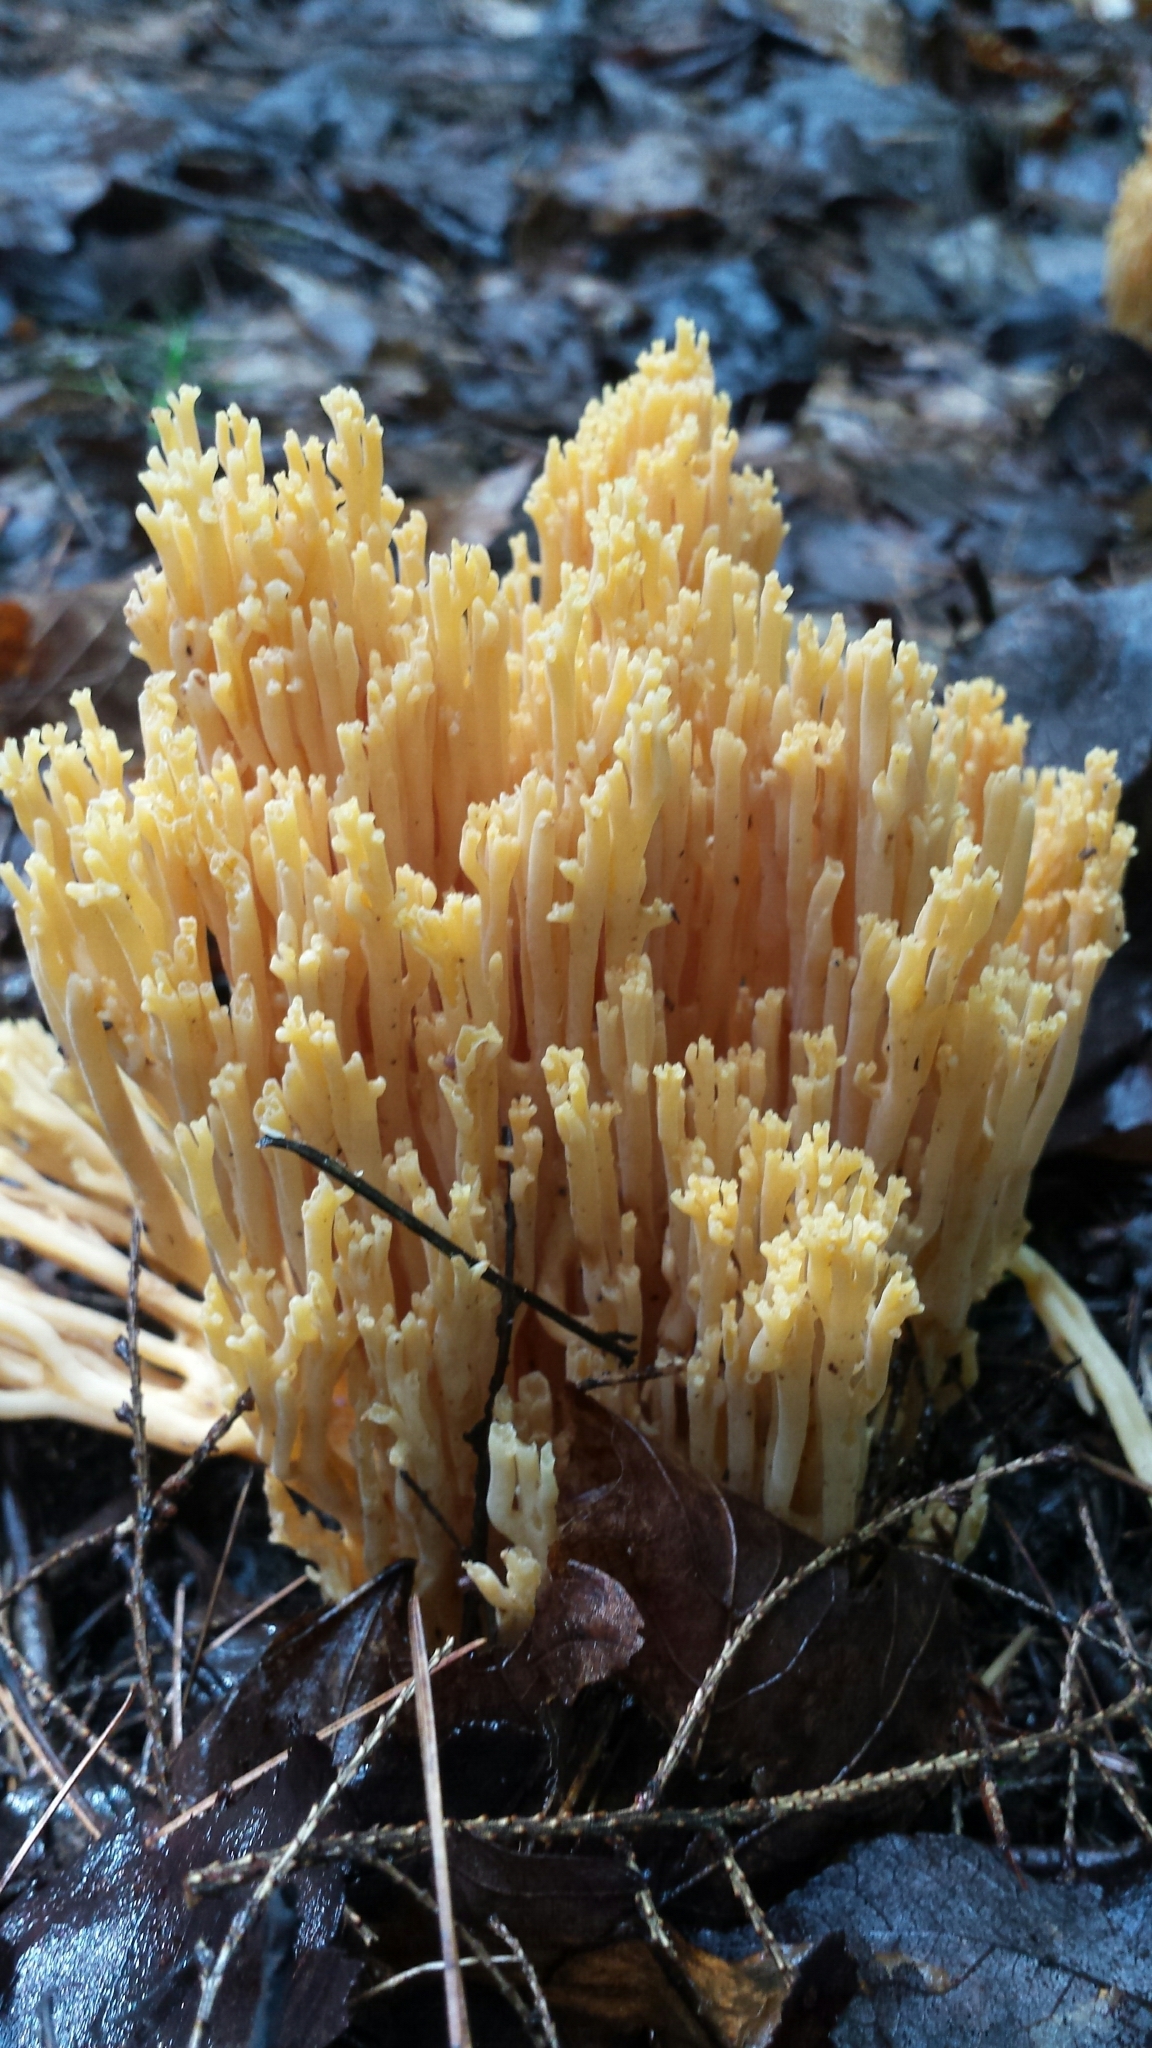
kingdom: Fungi
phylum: Basidiomycota
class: Agaricomycetes
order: Gomphales
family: Gomphaceae
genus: Ramaria
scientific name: Ramaria
